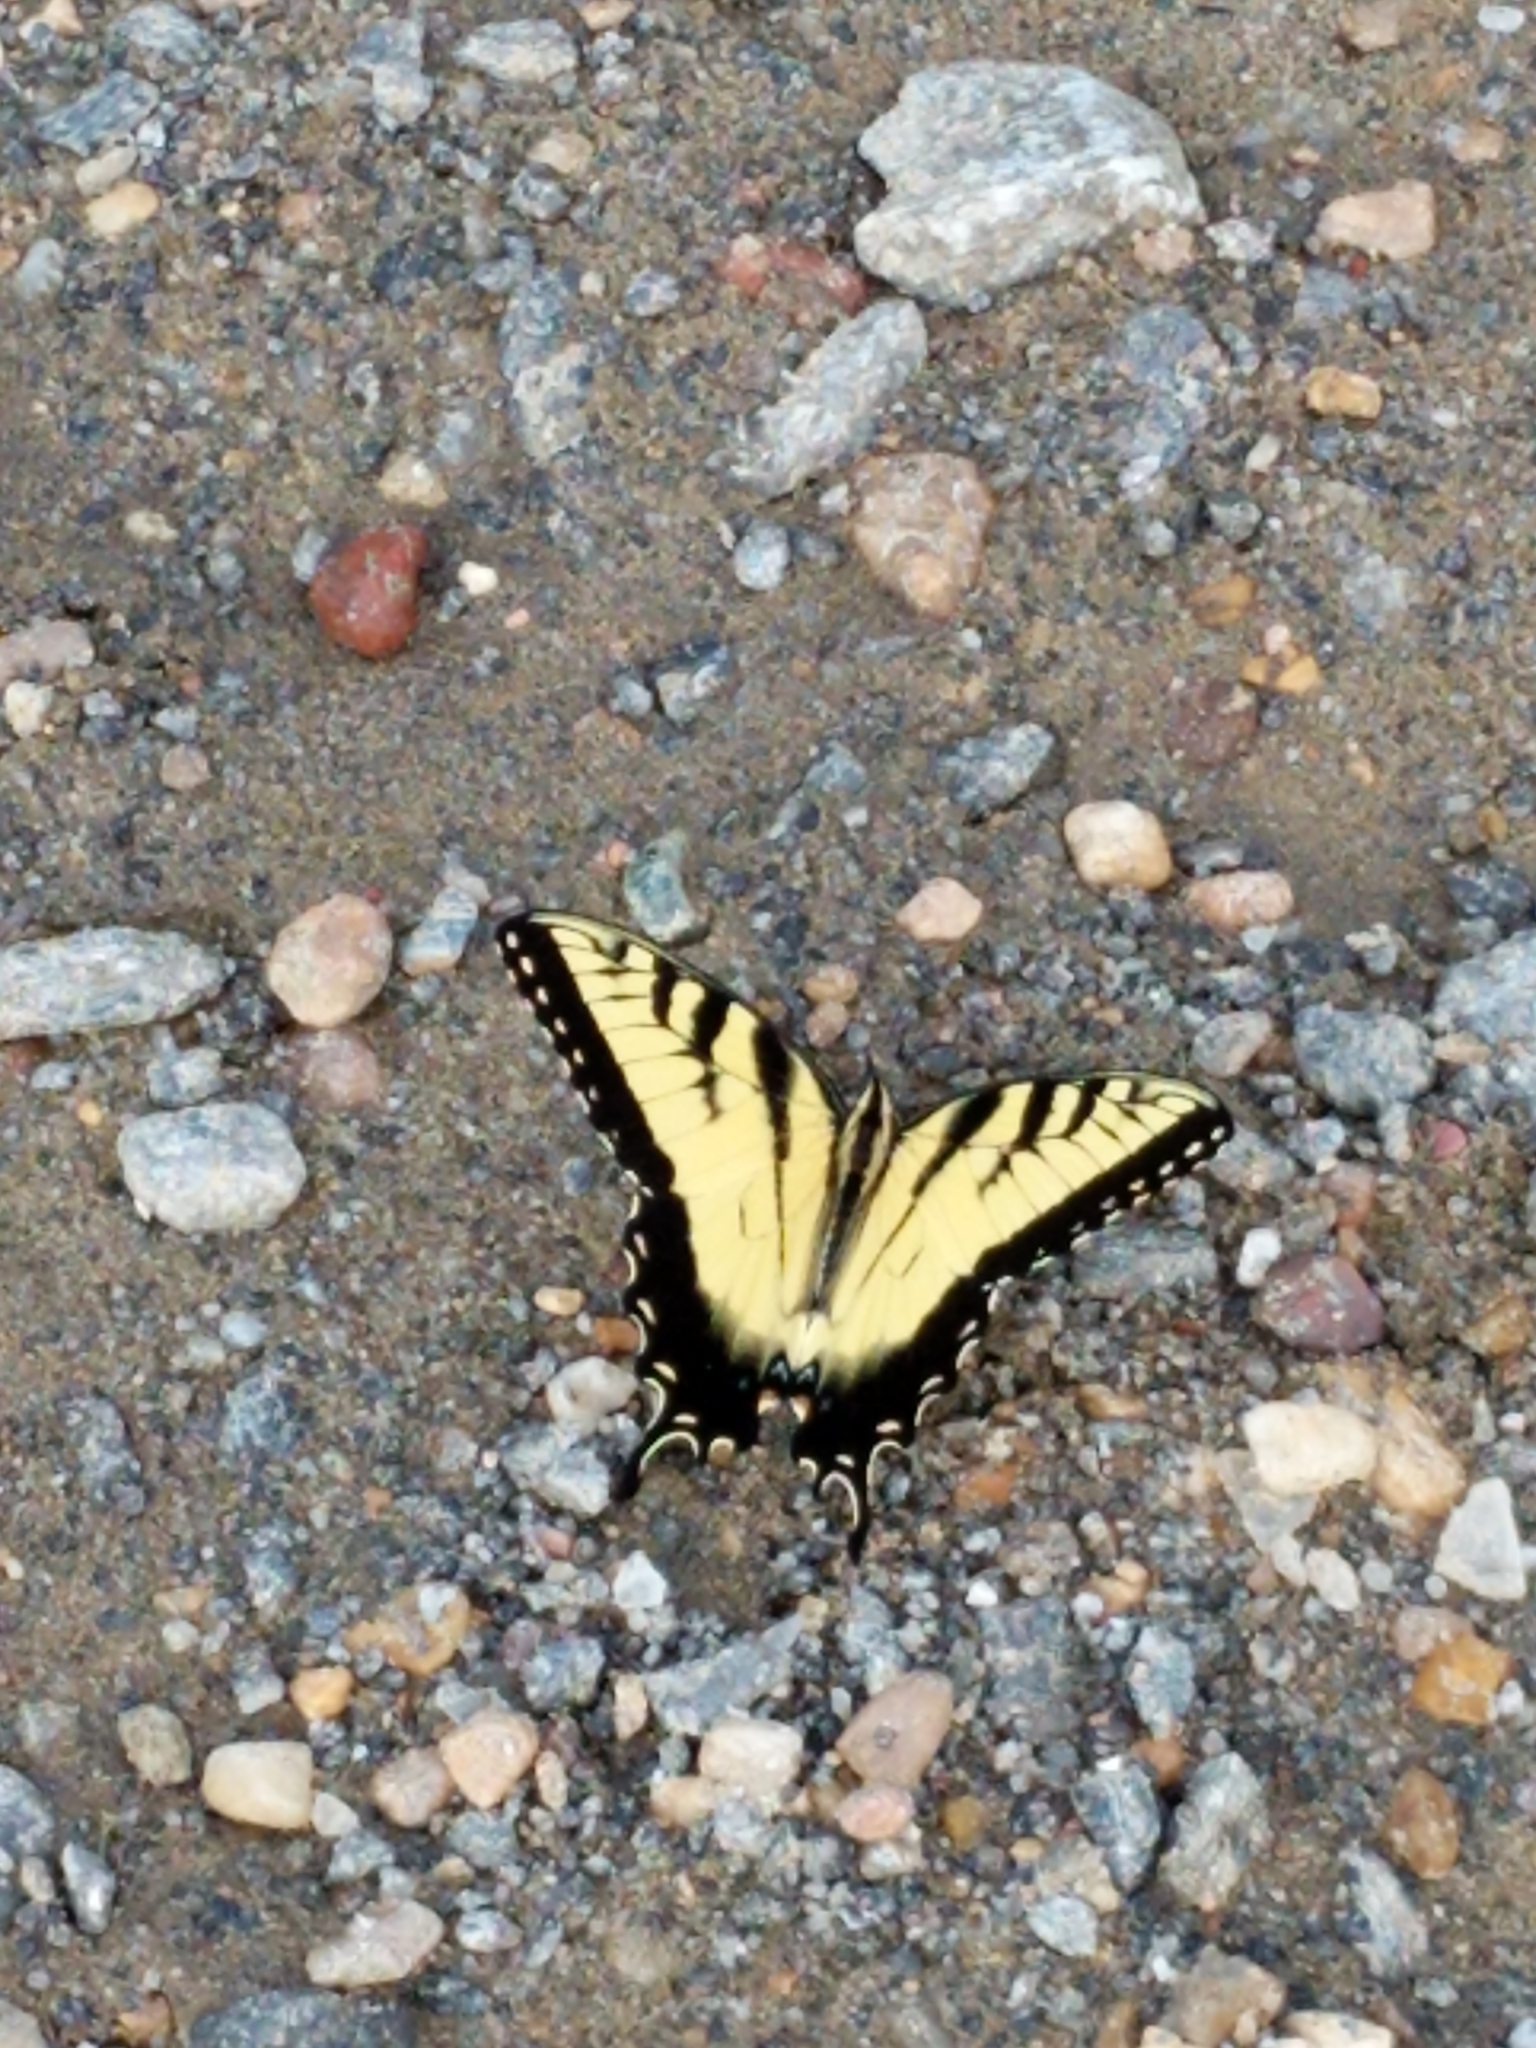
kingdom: Animalia
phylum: Arthropoda
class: Insecta
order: Lepidoptera
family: Papilionidae
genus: Papilio
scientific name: Papilio glaucus
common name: Tiger swallowtail
